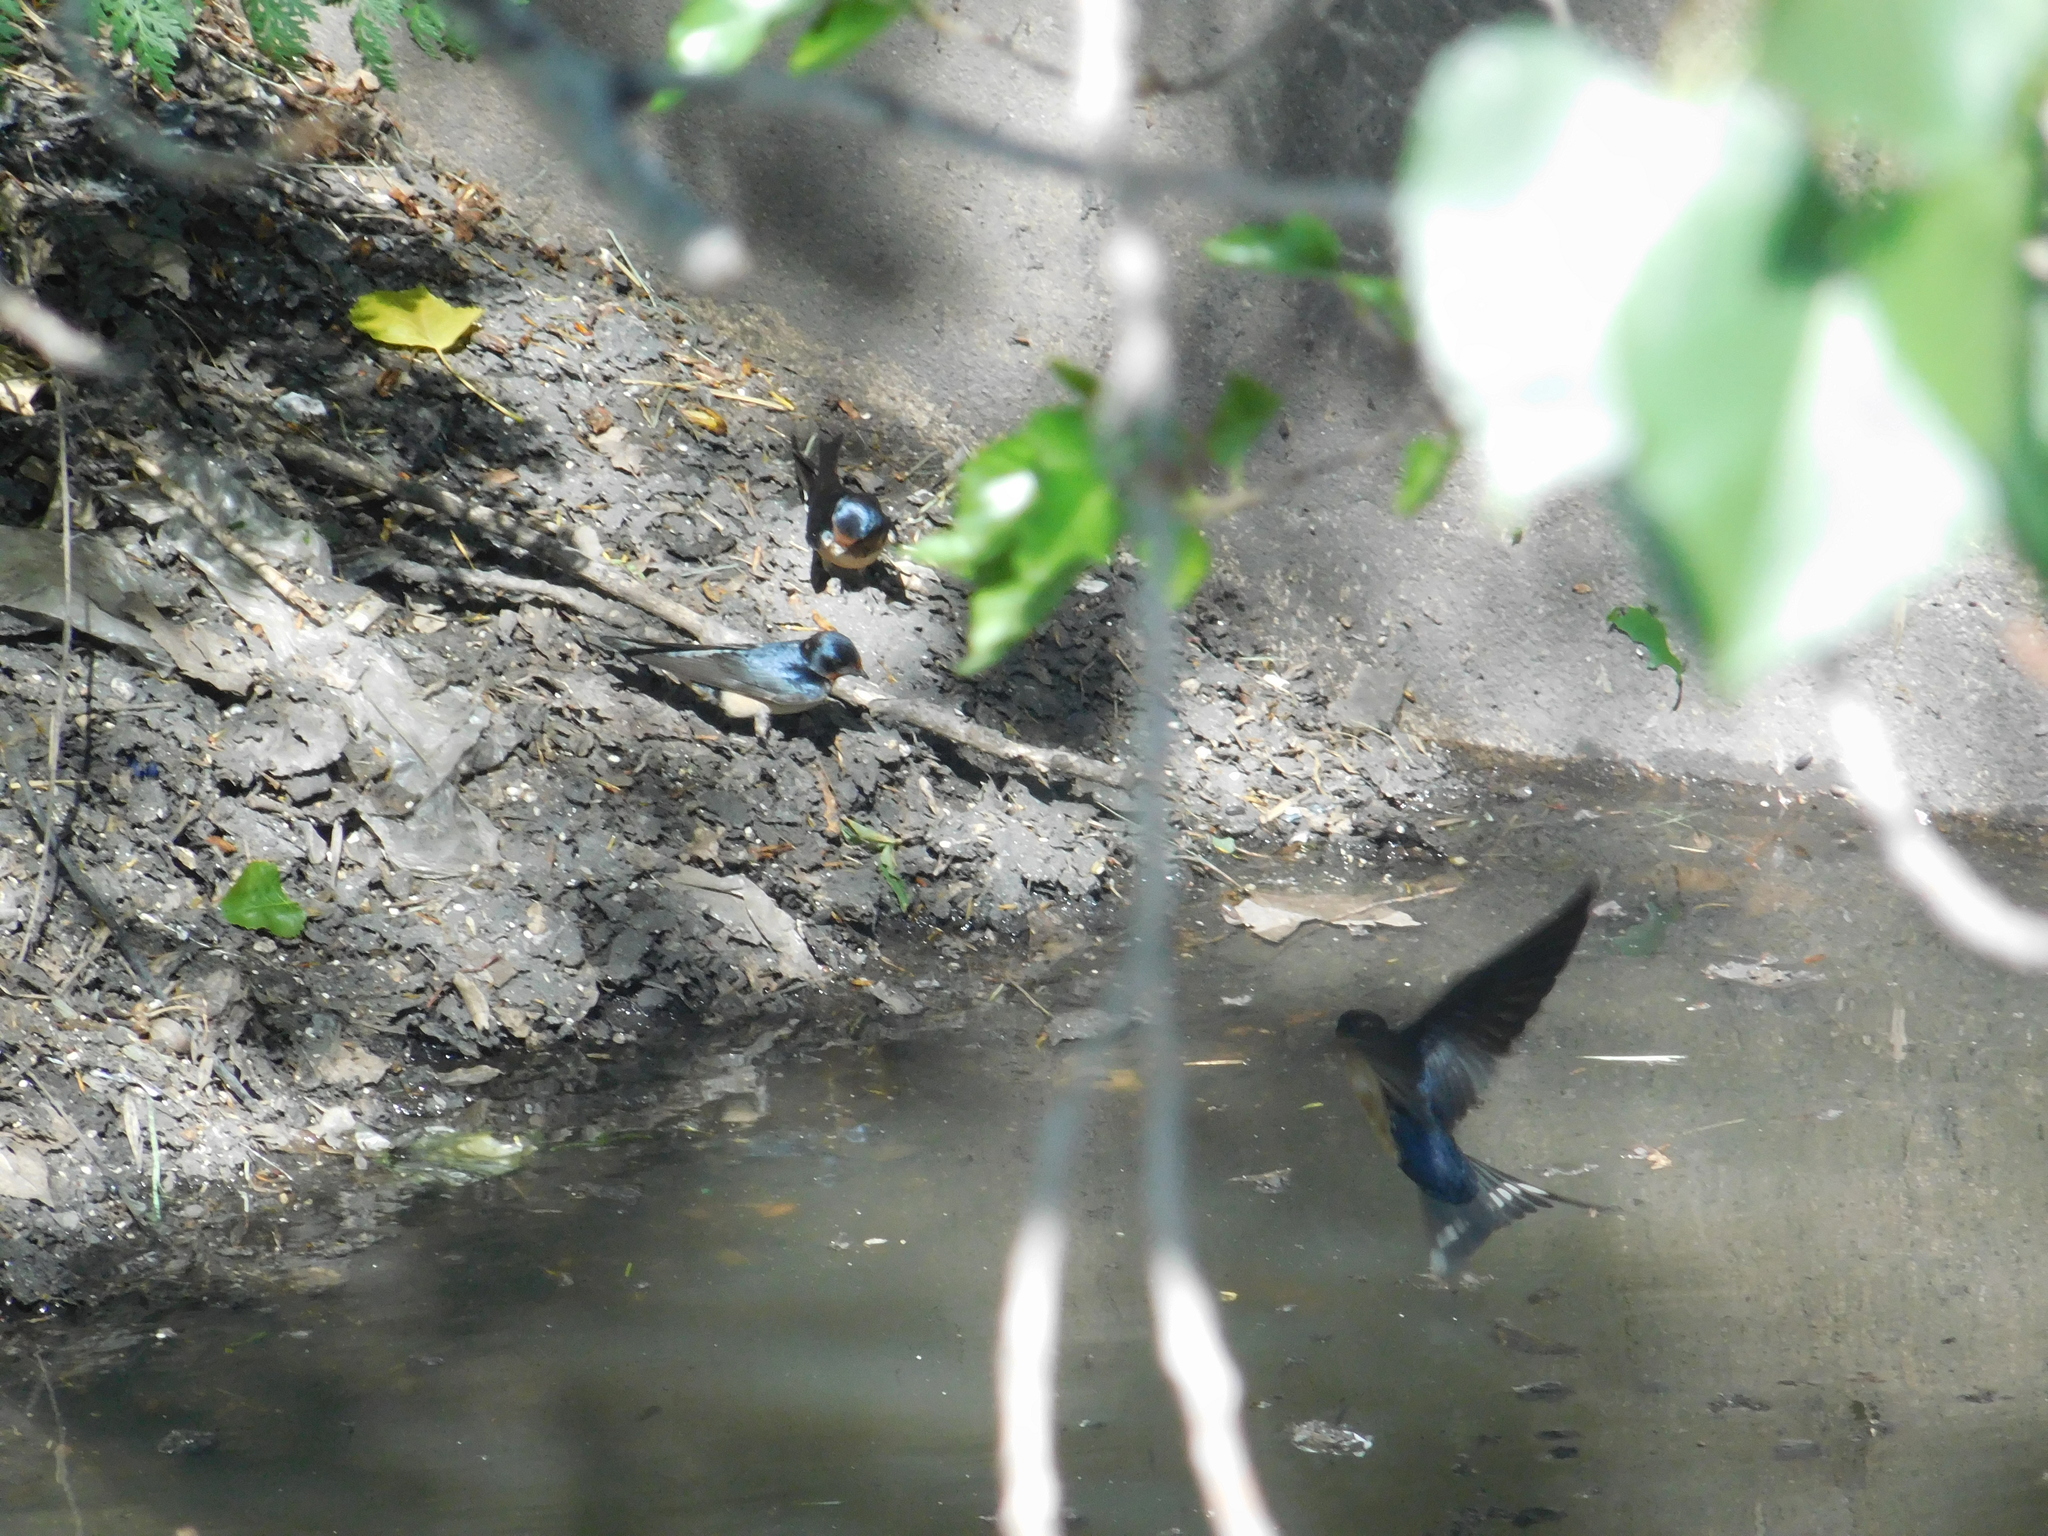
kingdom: Animalia
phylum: Chordata
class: Aves
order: Passeriformes
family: Hirundinidae
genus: Hirundo
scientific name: Hirundo rustica
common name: Barn swallow
